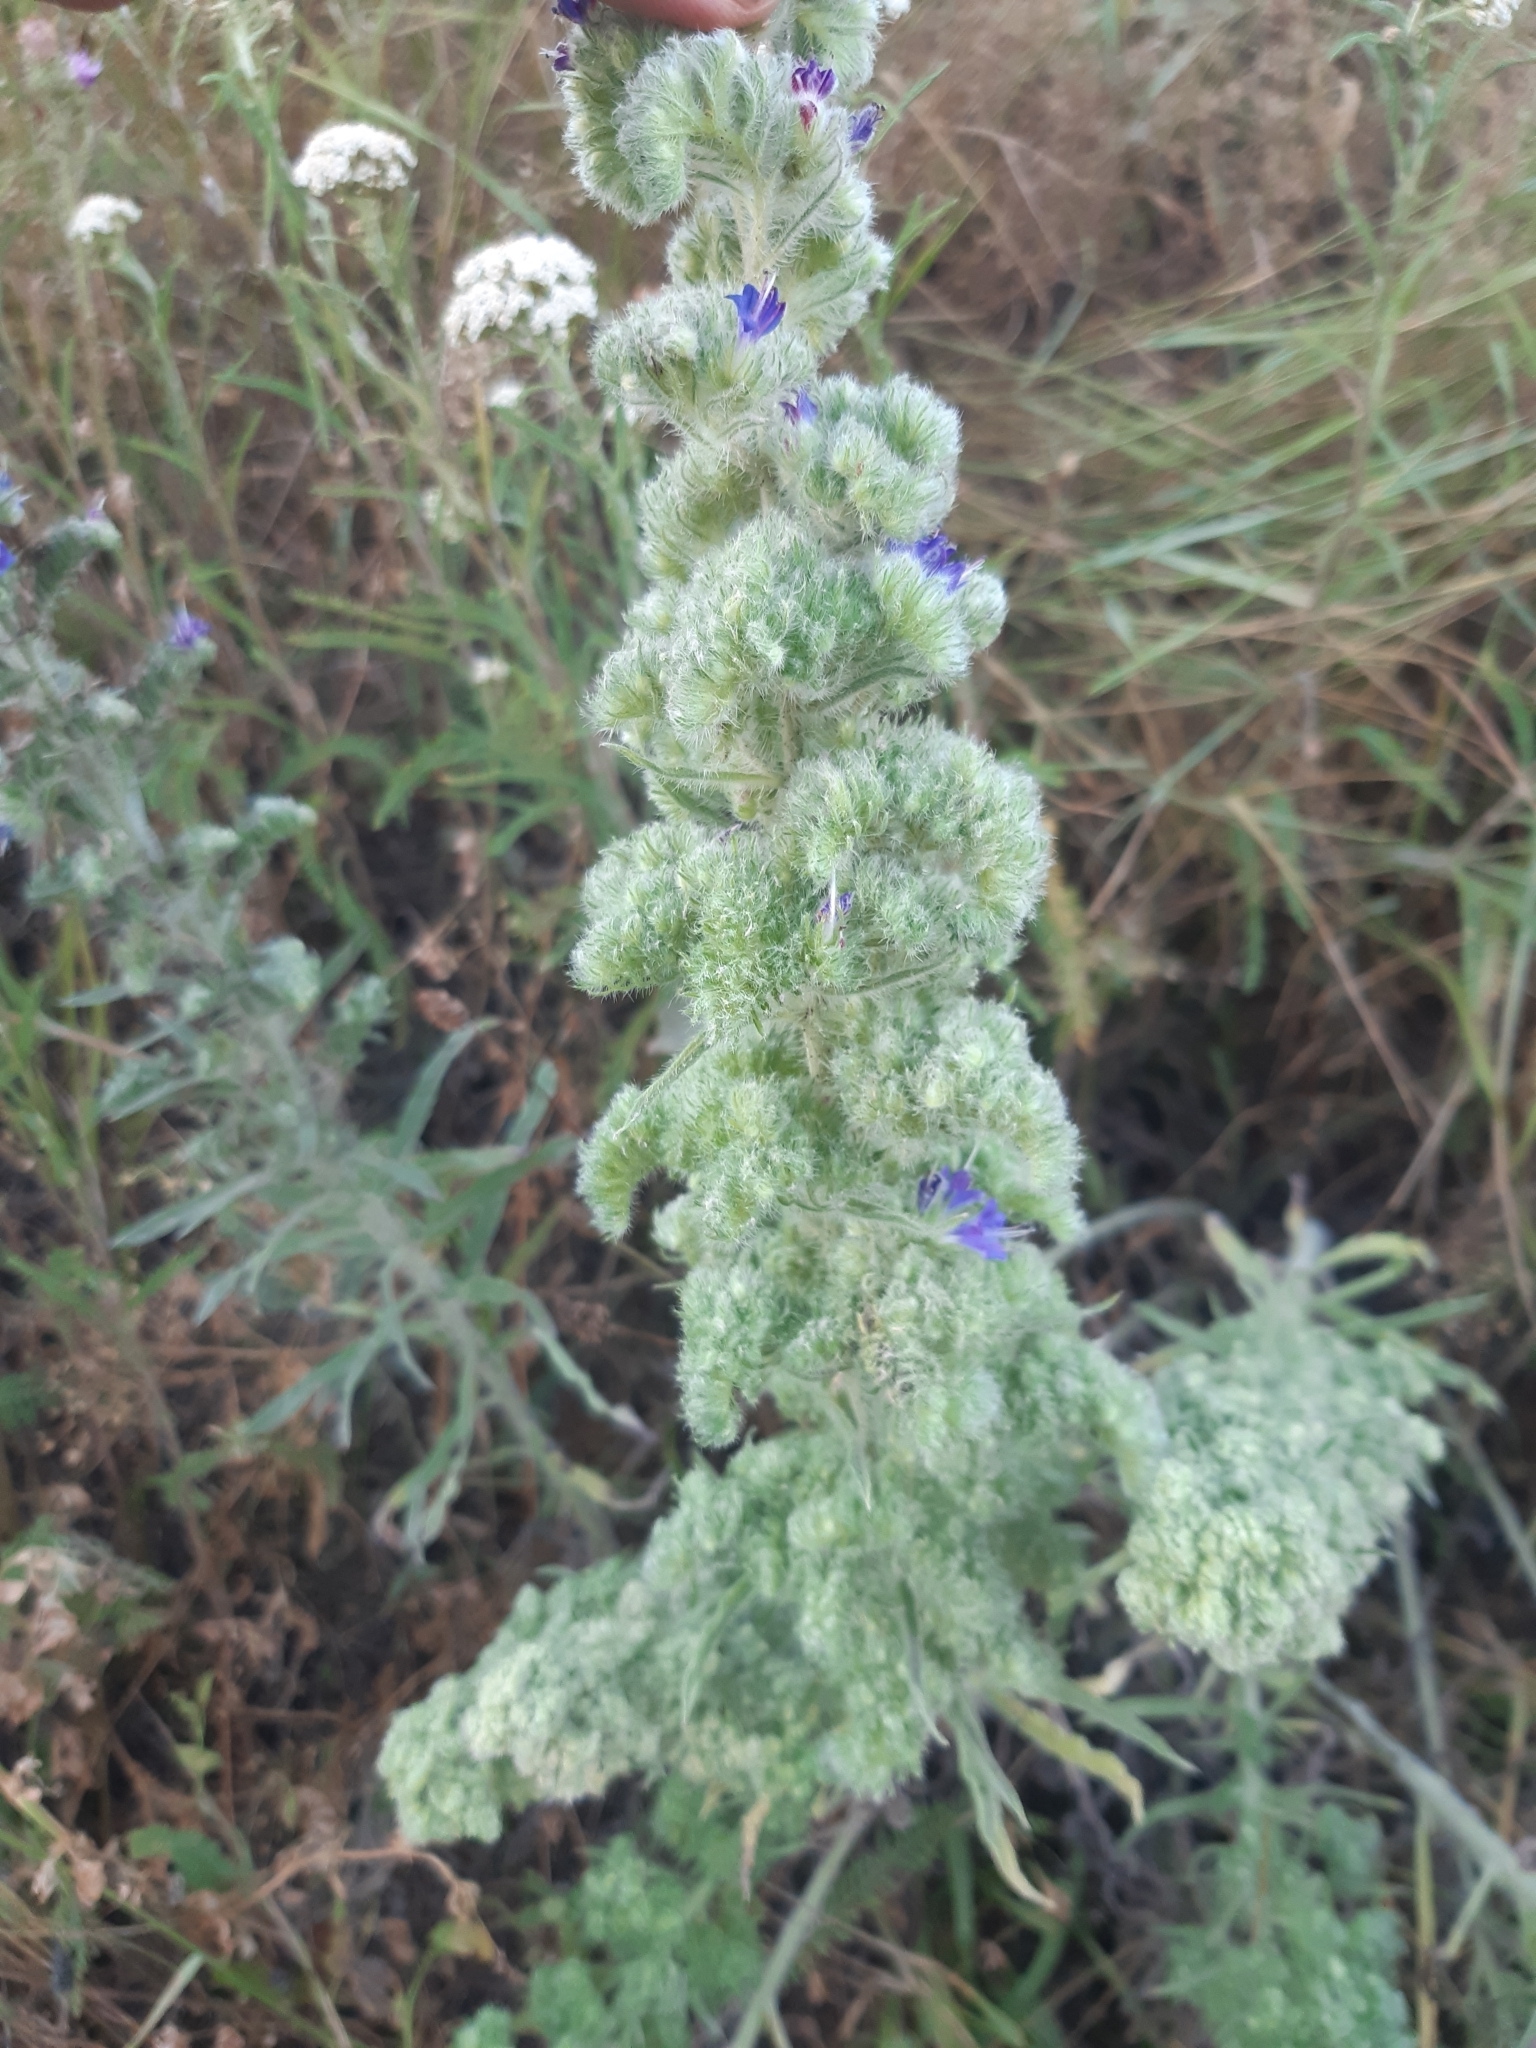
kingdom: Animalia
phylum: Arthropoda
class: Arachnida
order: Trombidiformes
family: Eriophyidae
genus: Aceria
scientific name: Aceria echii
